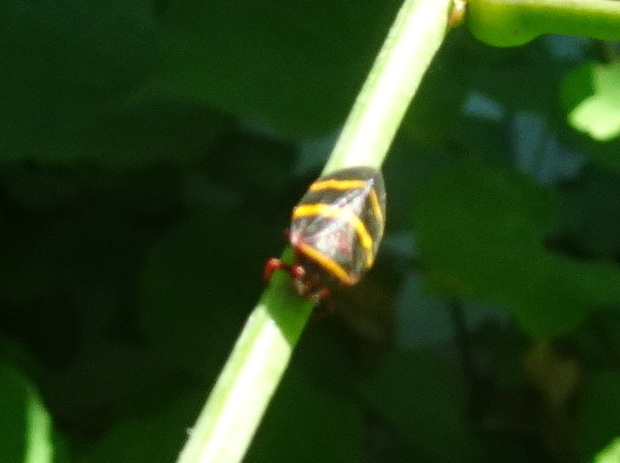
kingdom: Animalia
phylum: Arthropoda
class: Insecta
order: Hemiptera
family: Cercopidae
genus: Prosapia
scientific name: Prosapia bicincta
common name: Twolined spittlebug
